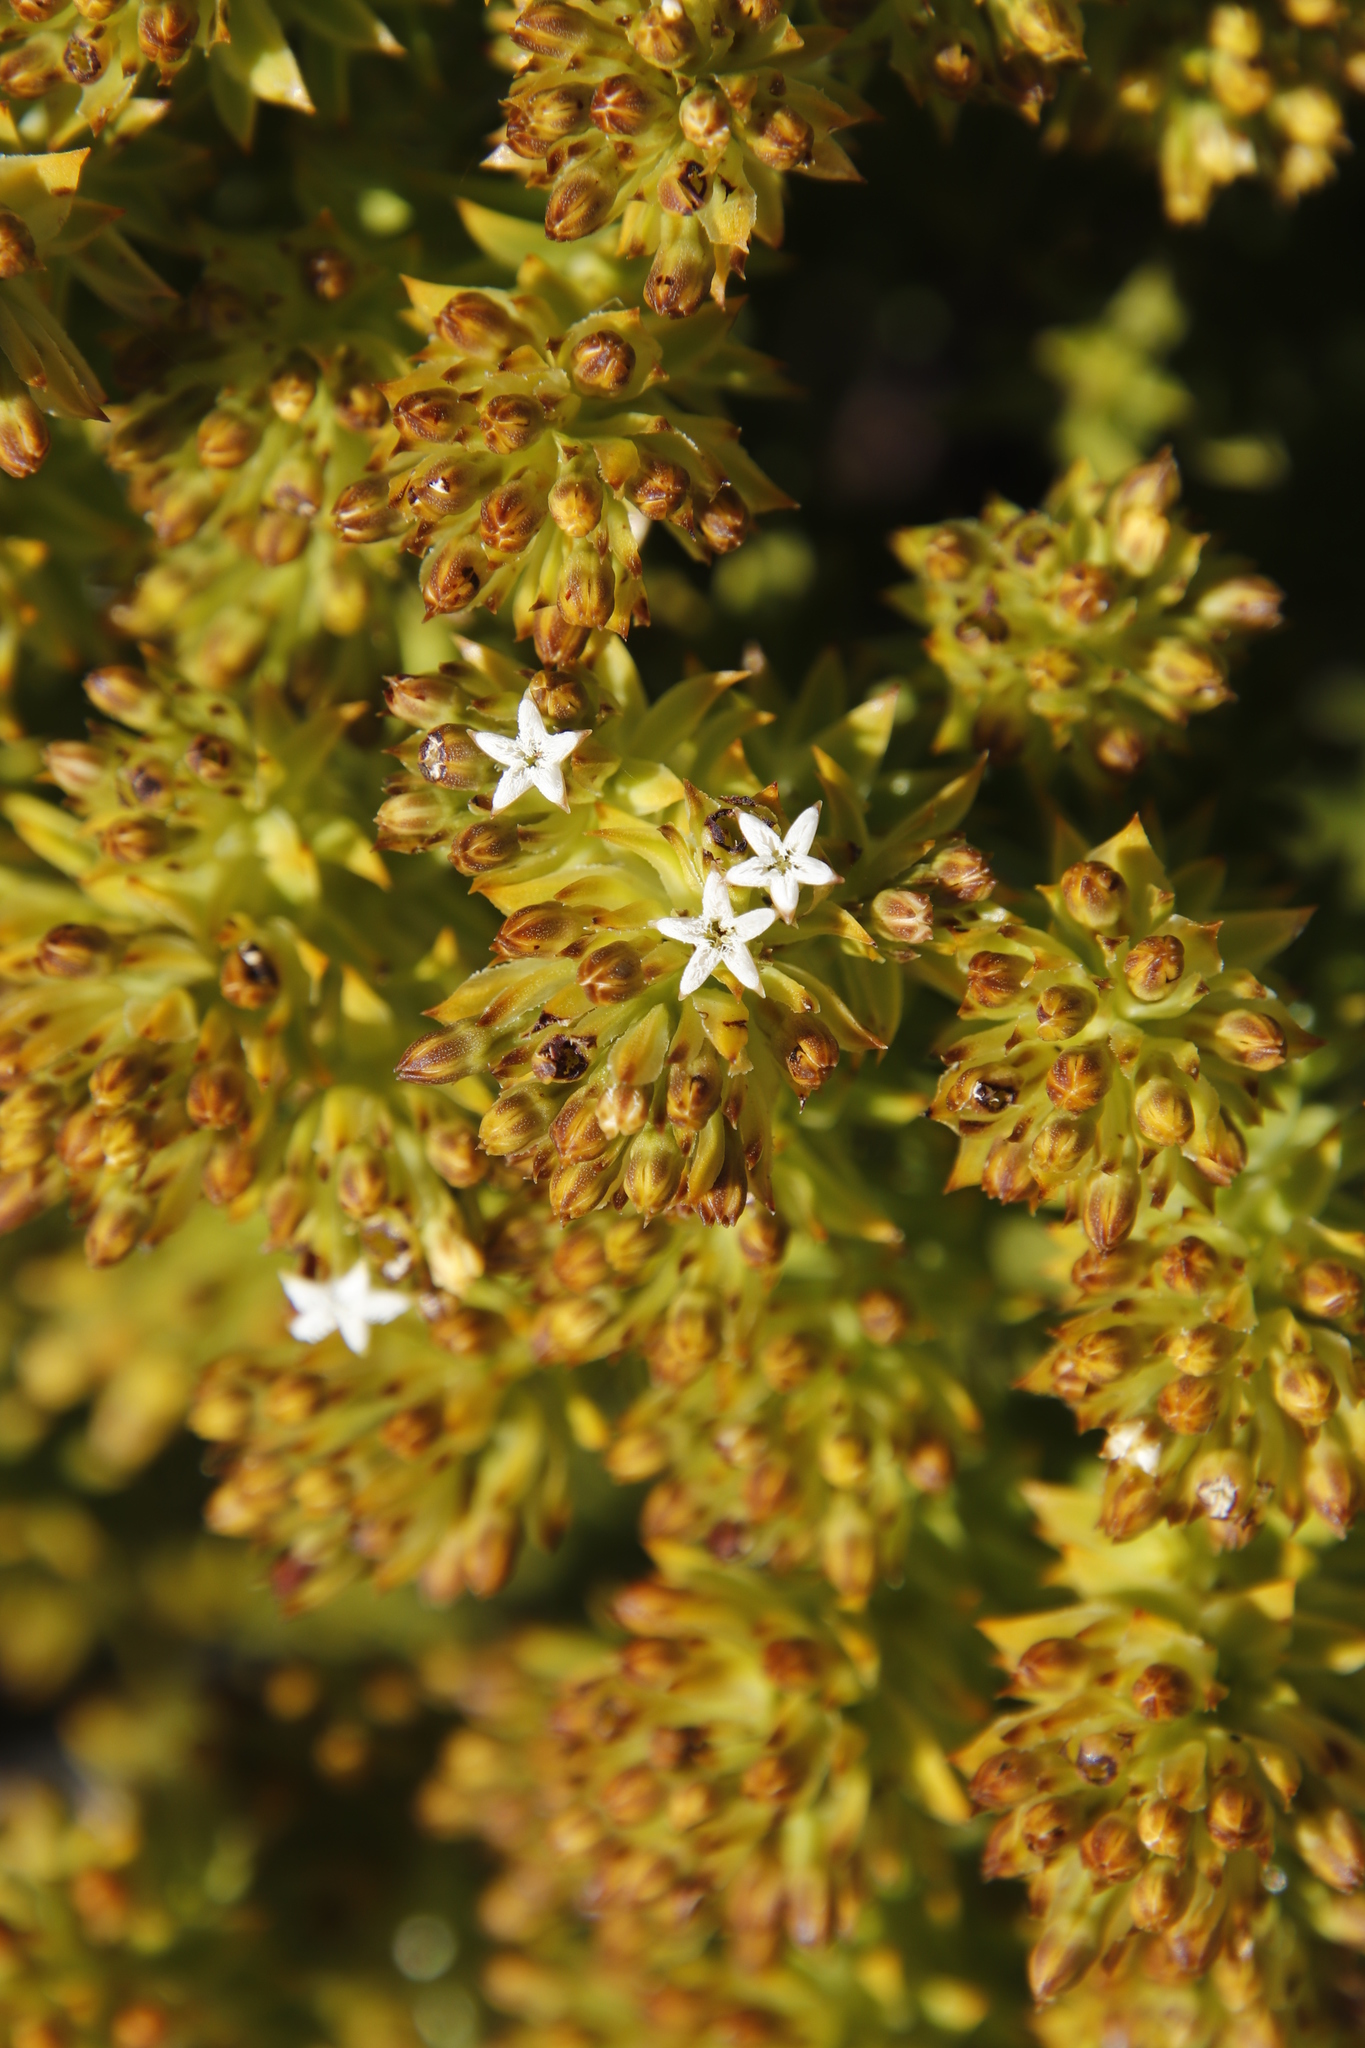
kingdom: Plantae
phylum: Tracheophyta
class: Magnoliopsida
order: Santalales
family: Thesiaceae
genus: Thesium
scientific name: Thesium viridifolium
